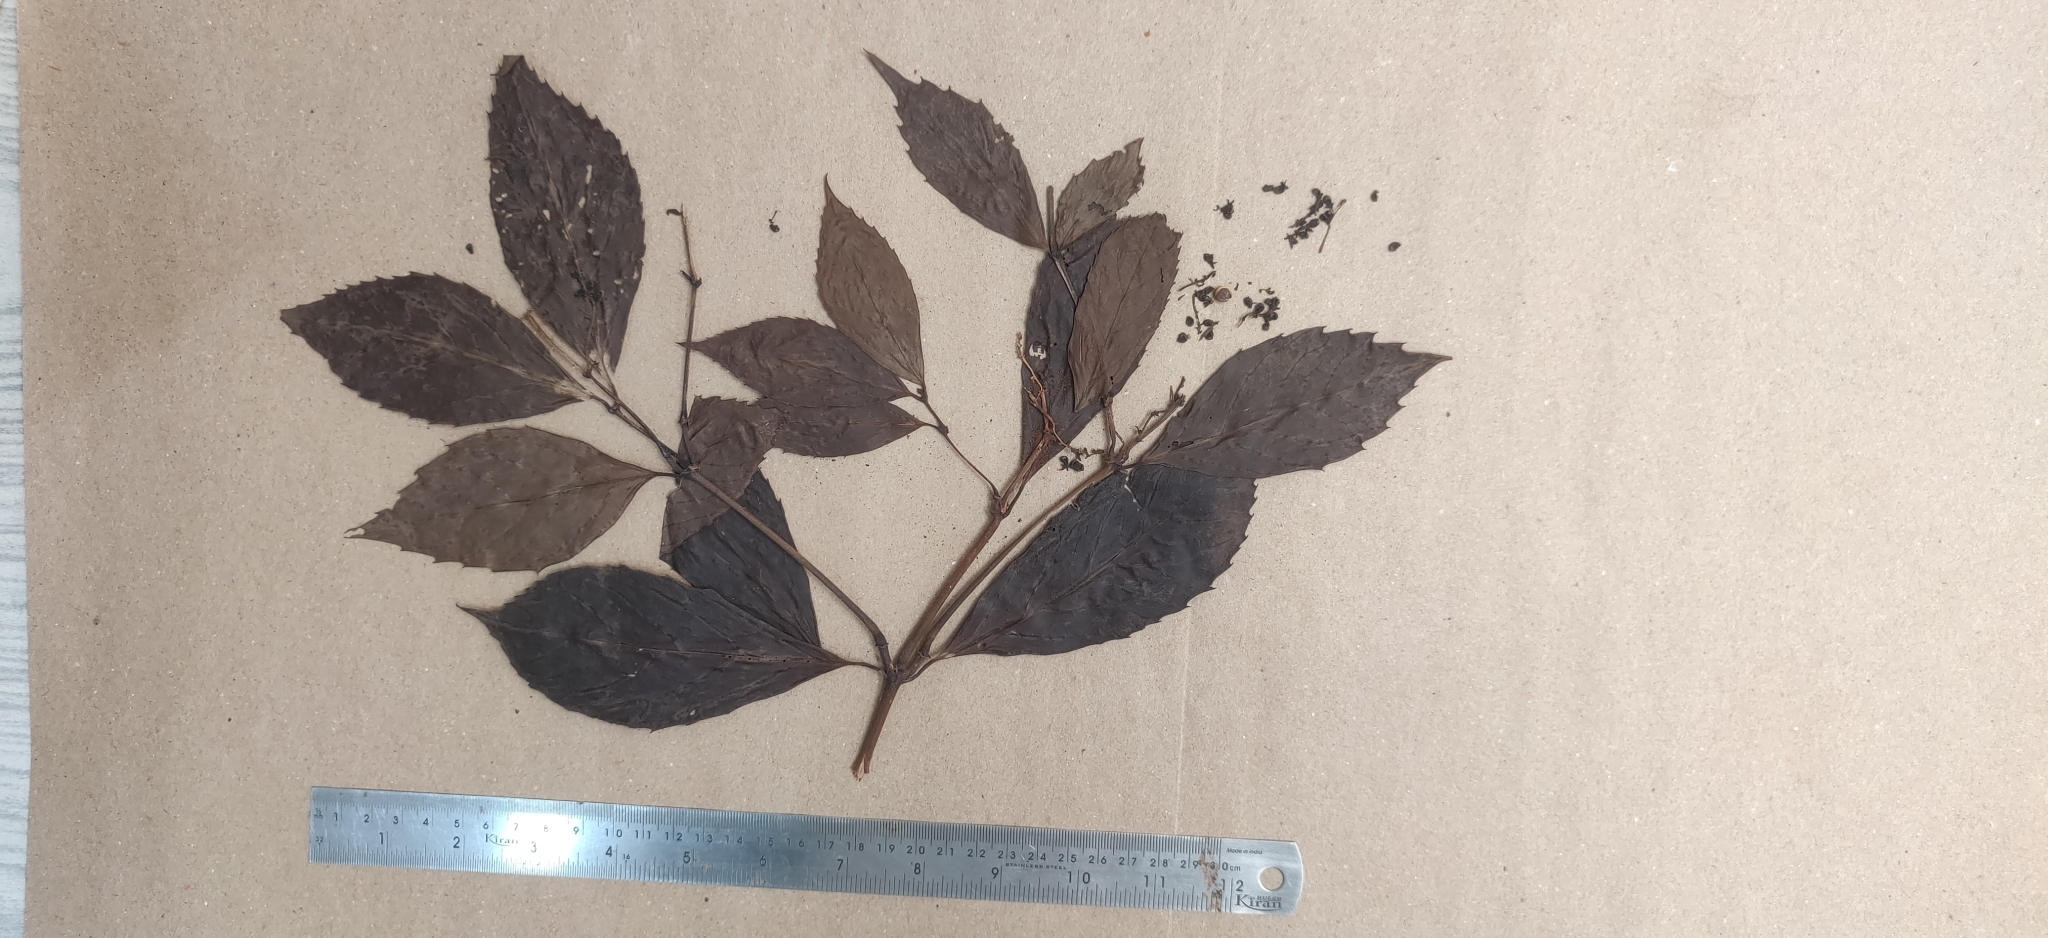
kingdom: Plantae
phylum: Tracheophyta
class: Magnoliopsida
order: Chloranthales
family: Chloranthaceae
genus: Sarcandra
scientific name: Sarcandra glabra
